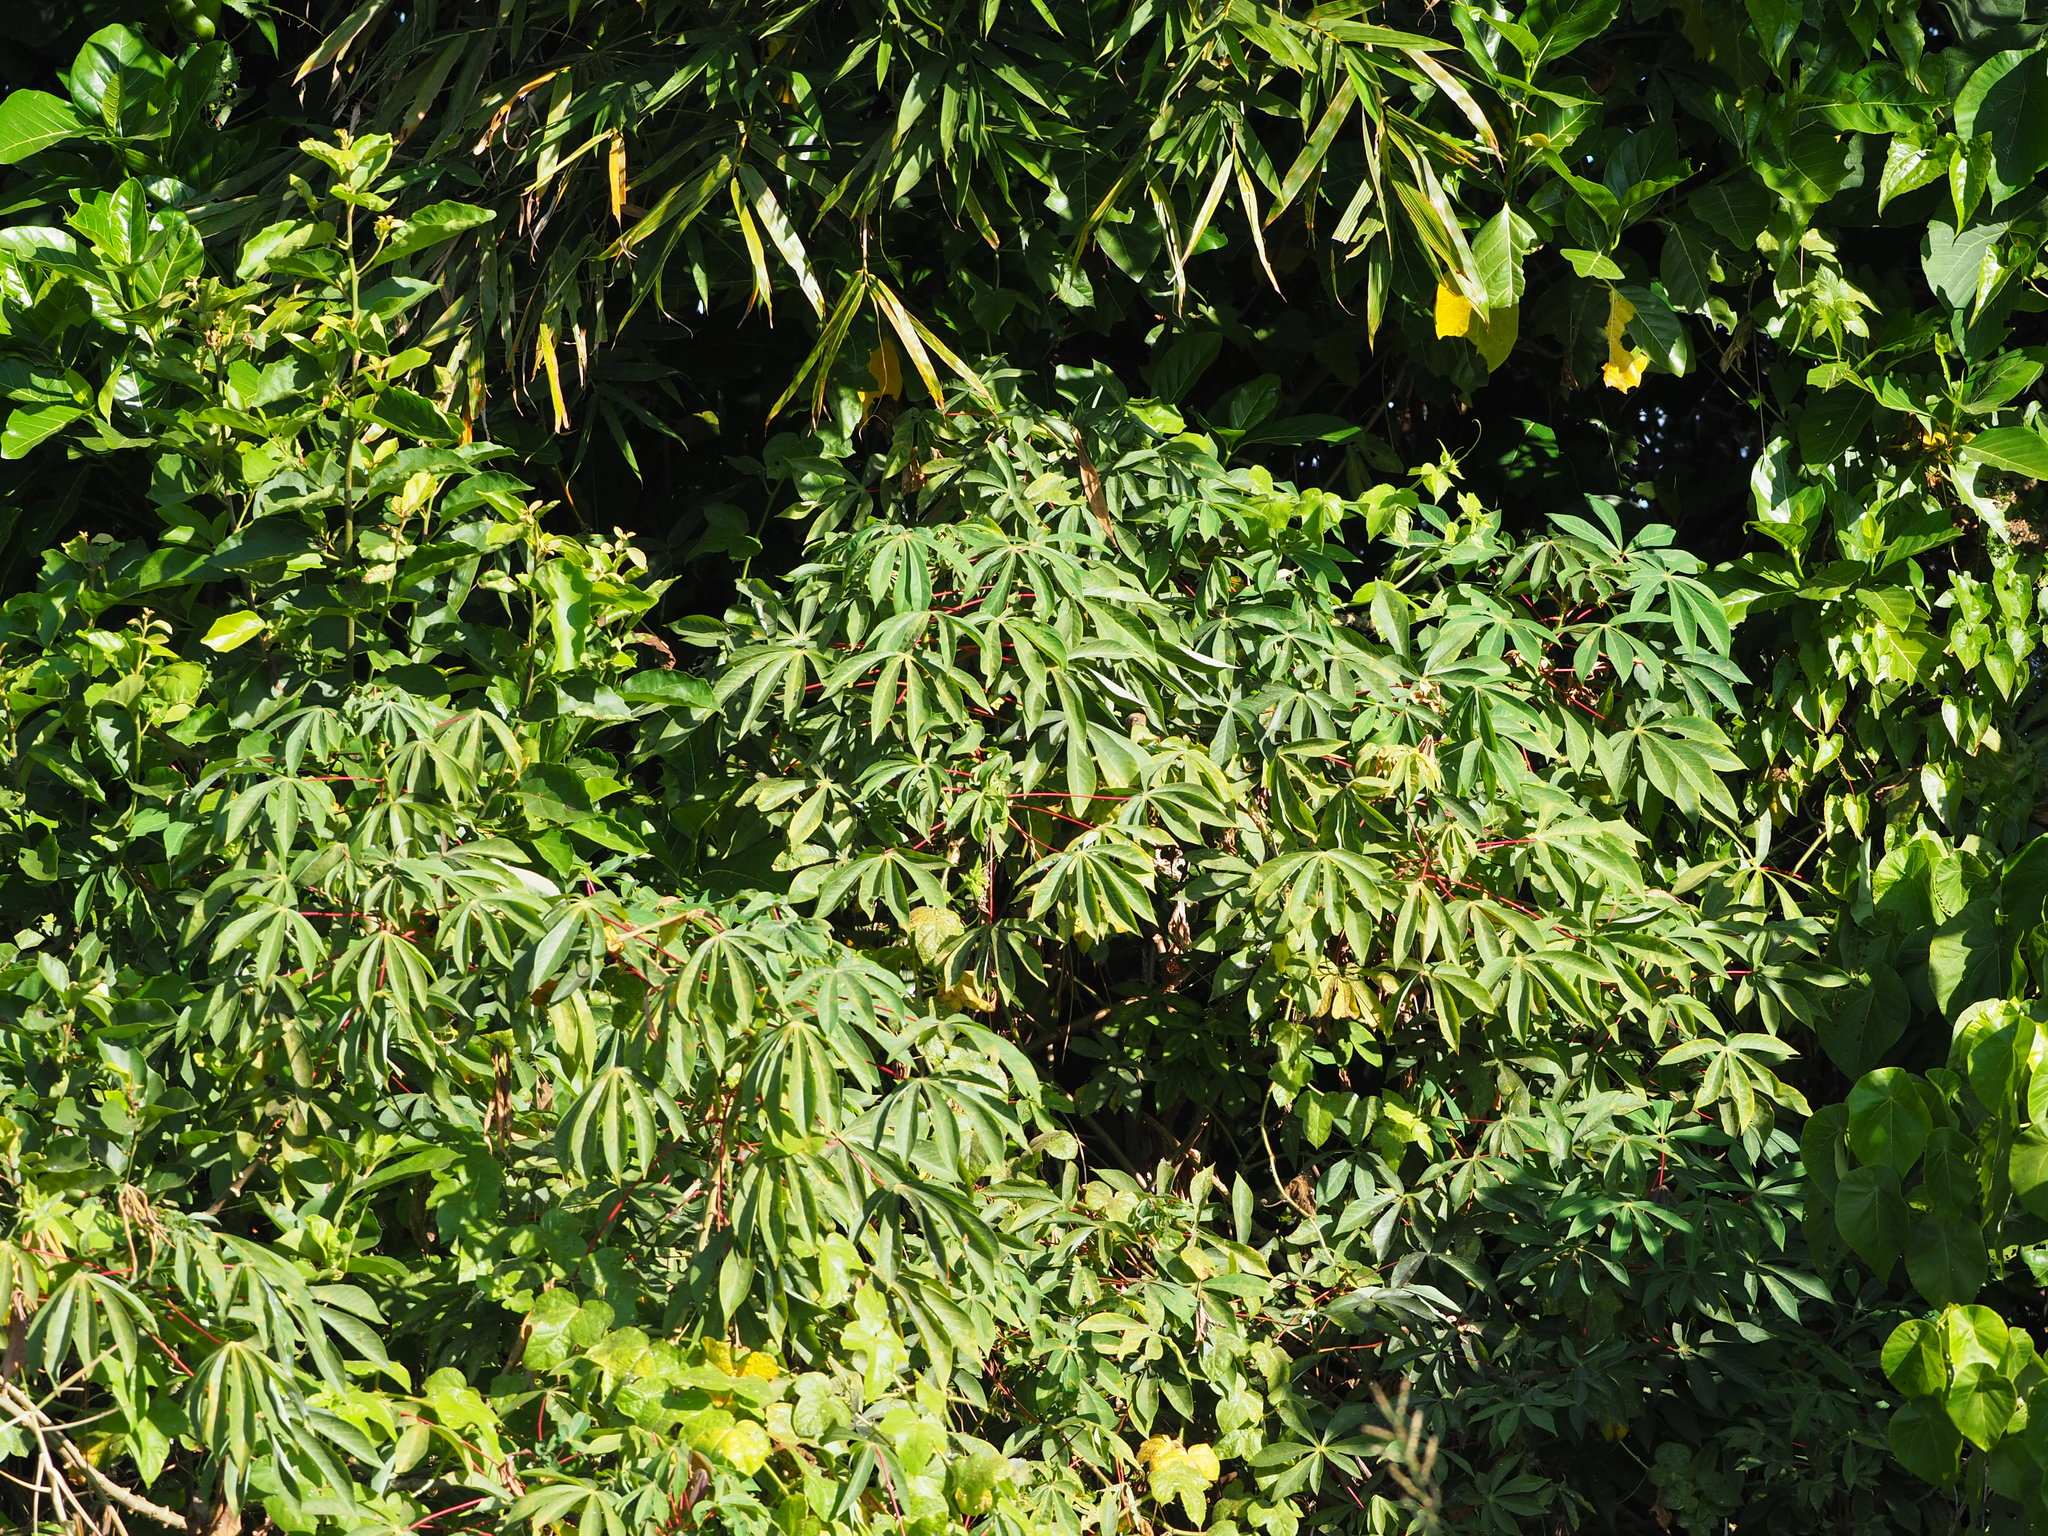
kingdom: Plantae
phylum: Tracheophyta
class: Magnoliopsida
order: Malpighiales
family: Euphorbiaceae
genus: Manihot
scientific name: Manihot esculenta
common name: Cassava
